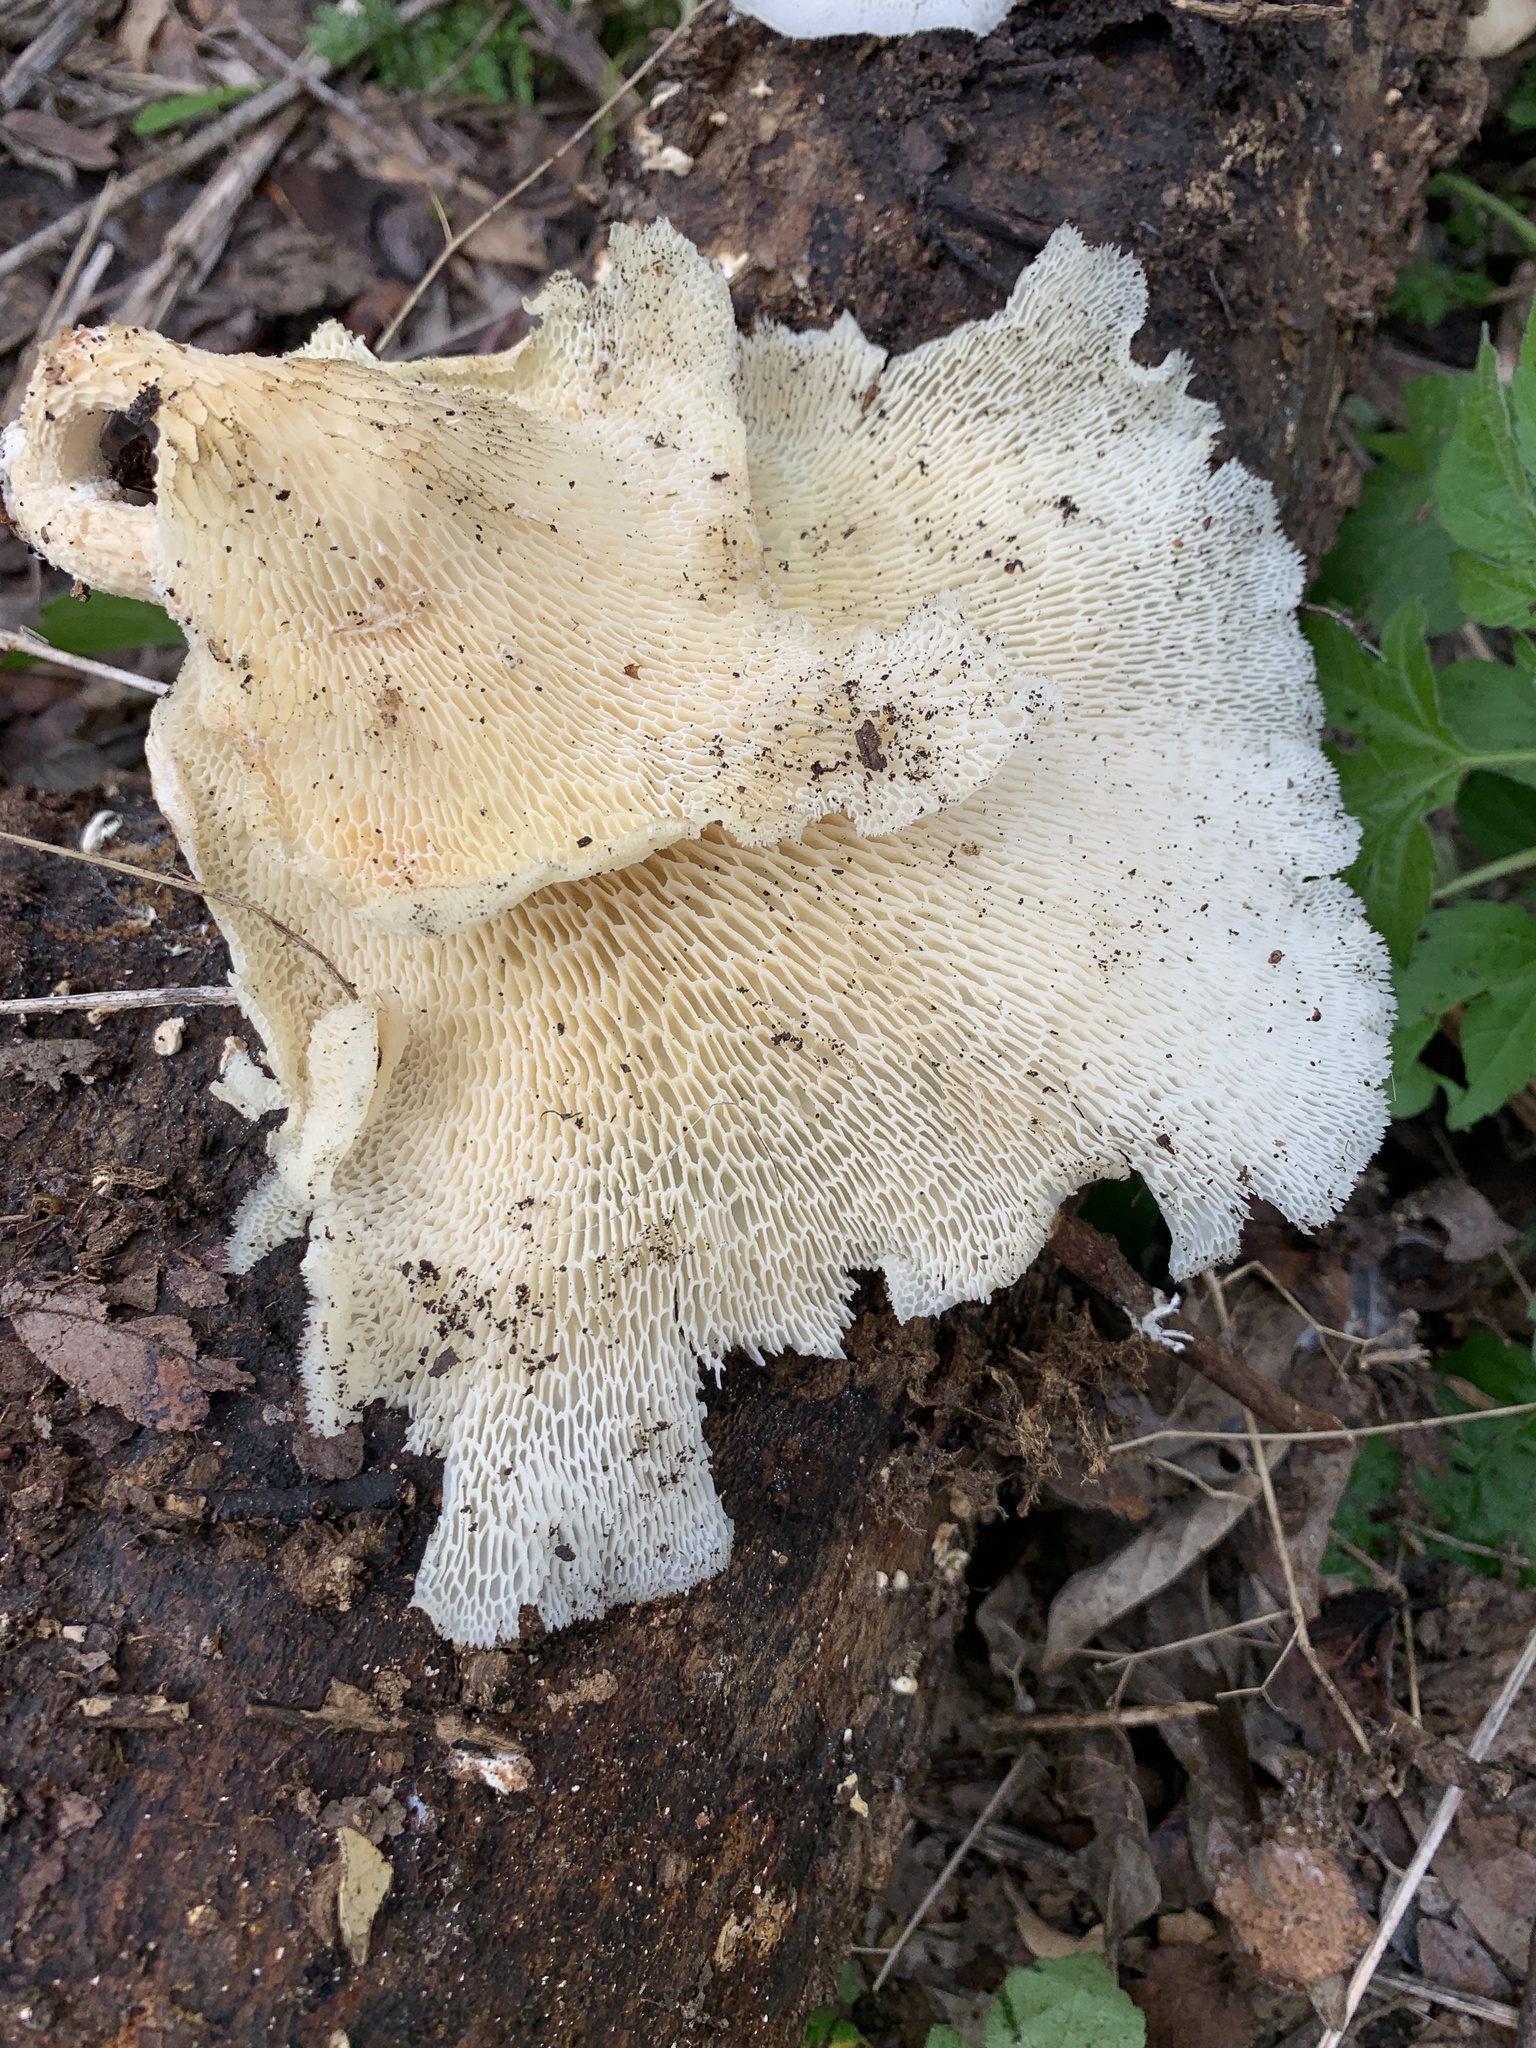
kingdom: Fungi
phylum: Basidiomycota
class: Agaricomycetes
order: Polyporales
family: Polyporaceae
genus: Favolus
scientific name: Favolus tenuiculus
